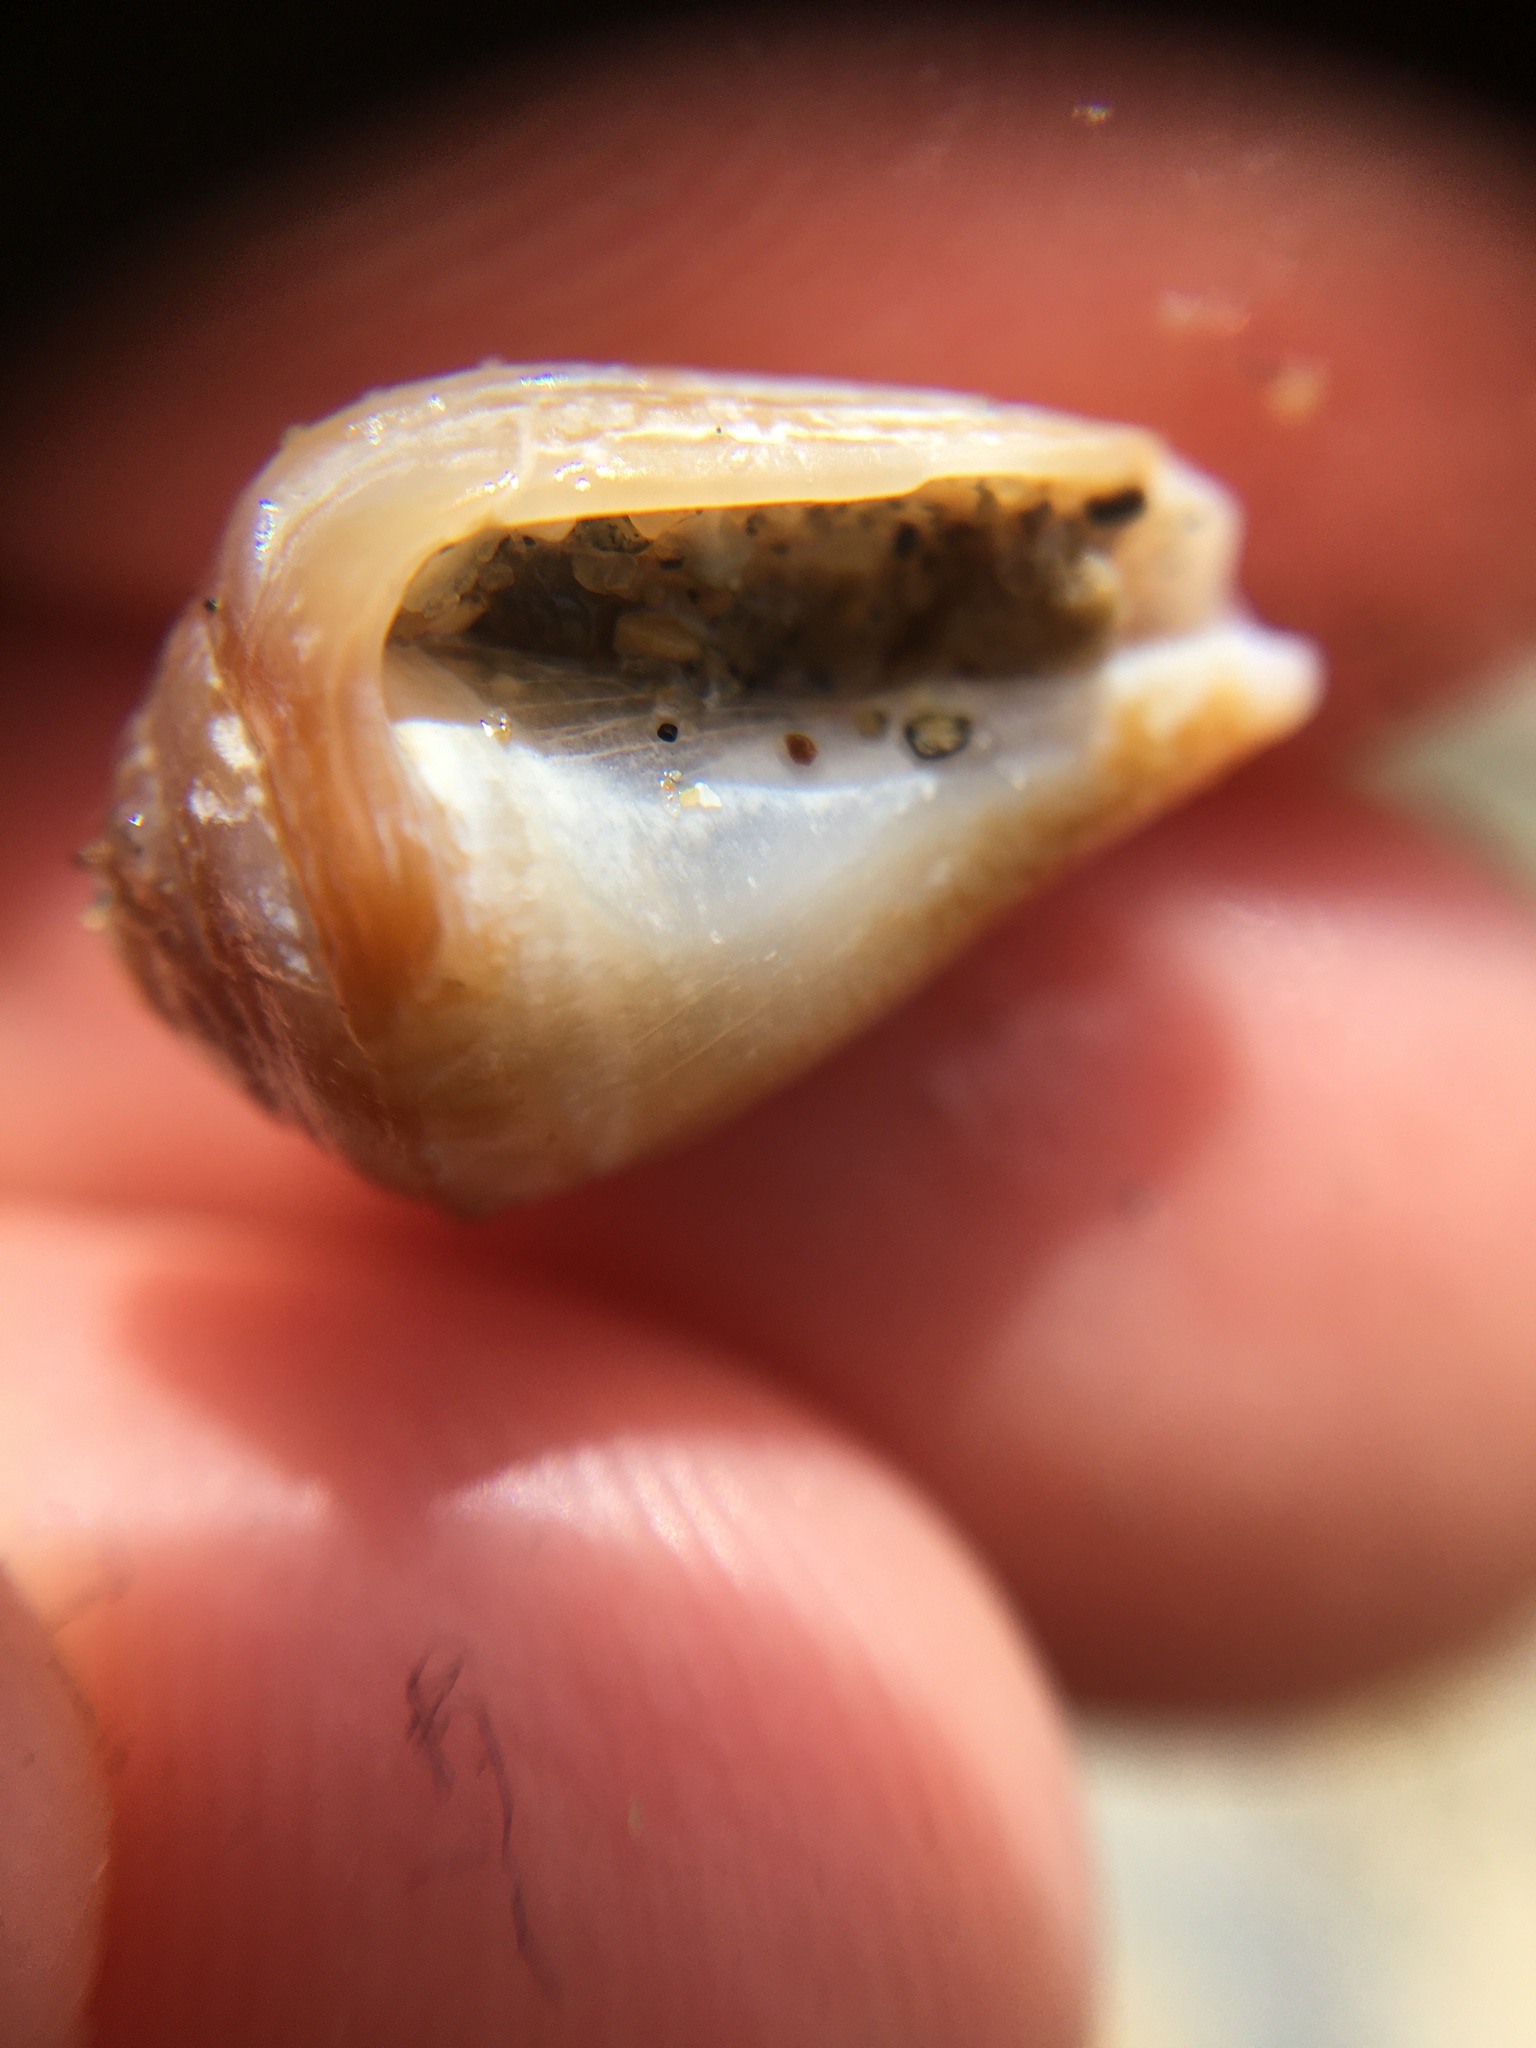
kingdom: Animalia
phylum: Mollusca
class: Gastropoda
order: Neogastropoda
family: Conidae
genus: Californiconus
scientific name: Californiconus californicus
